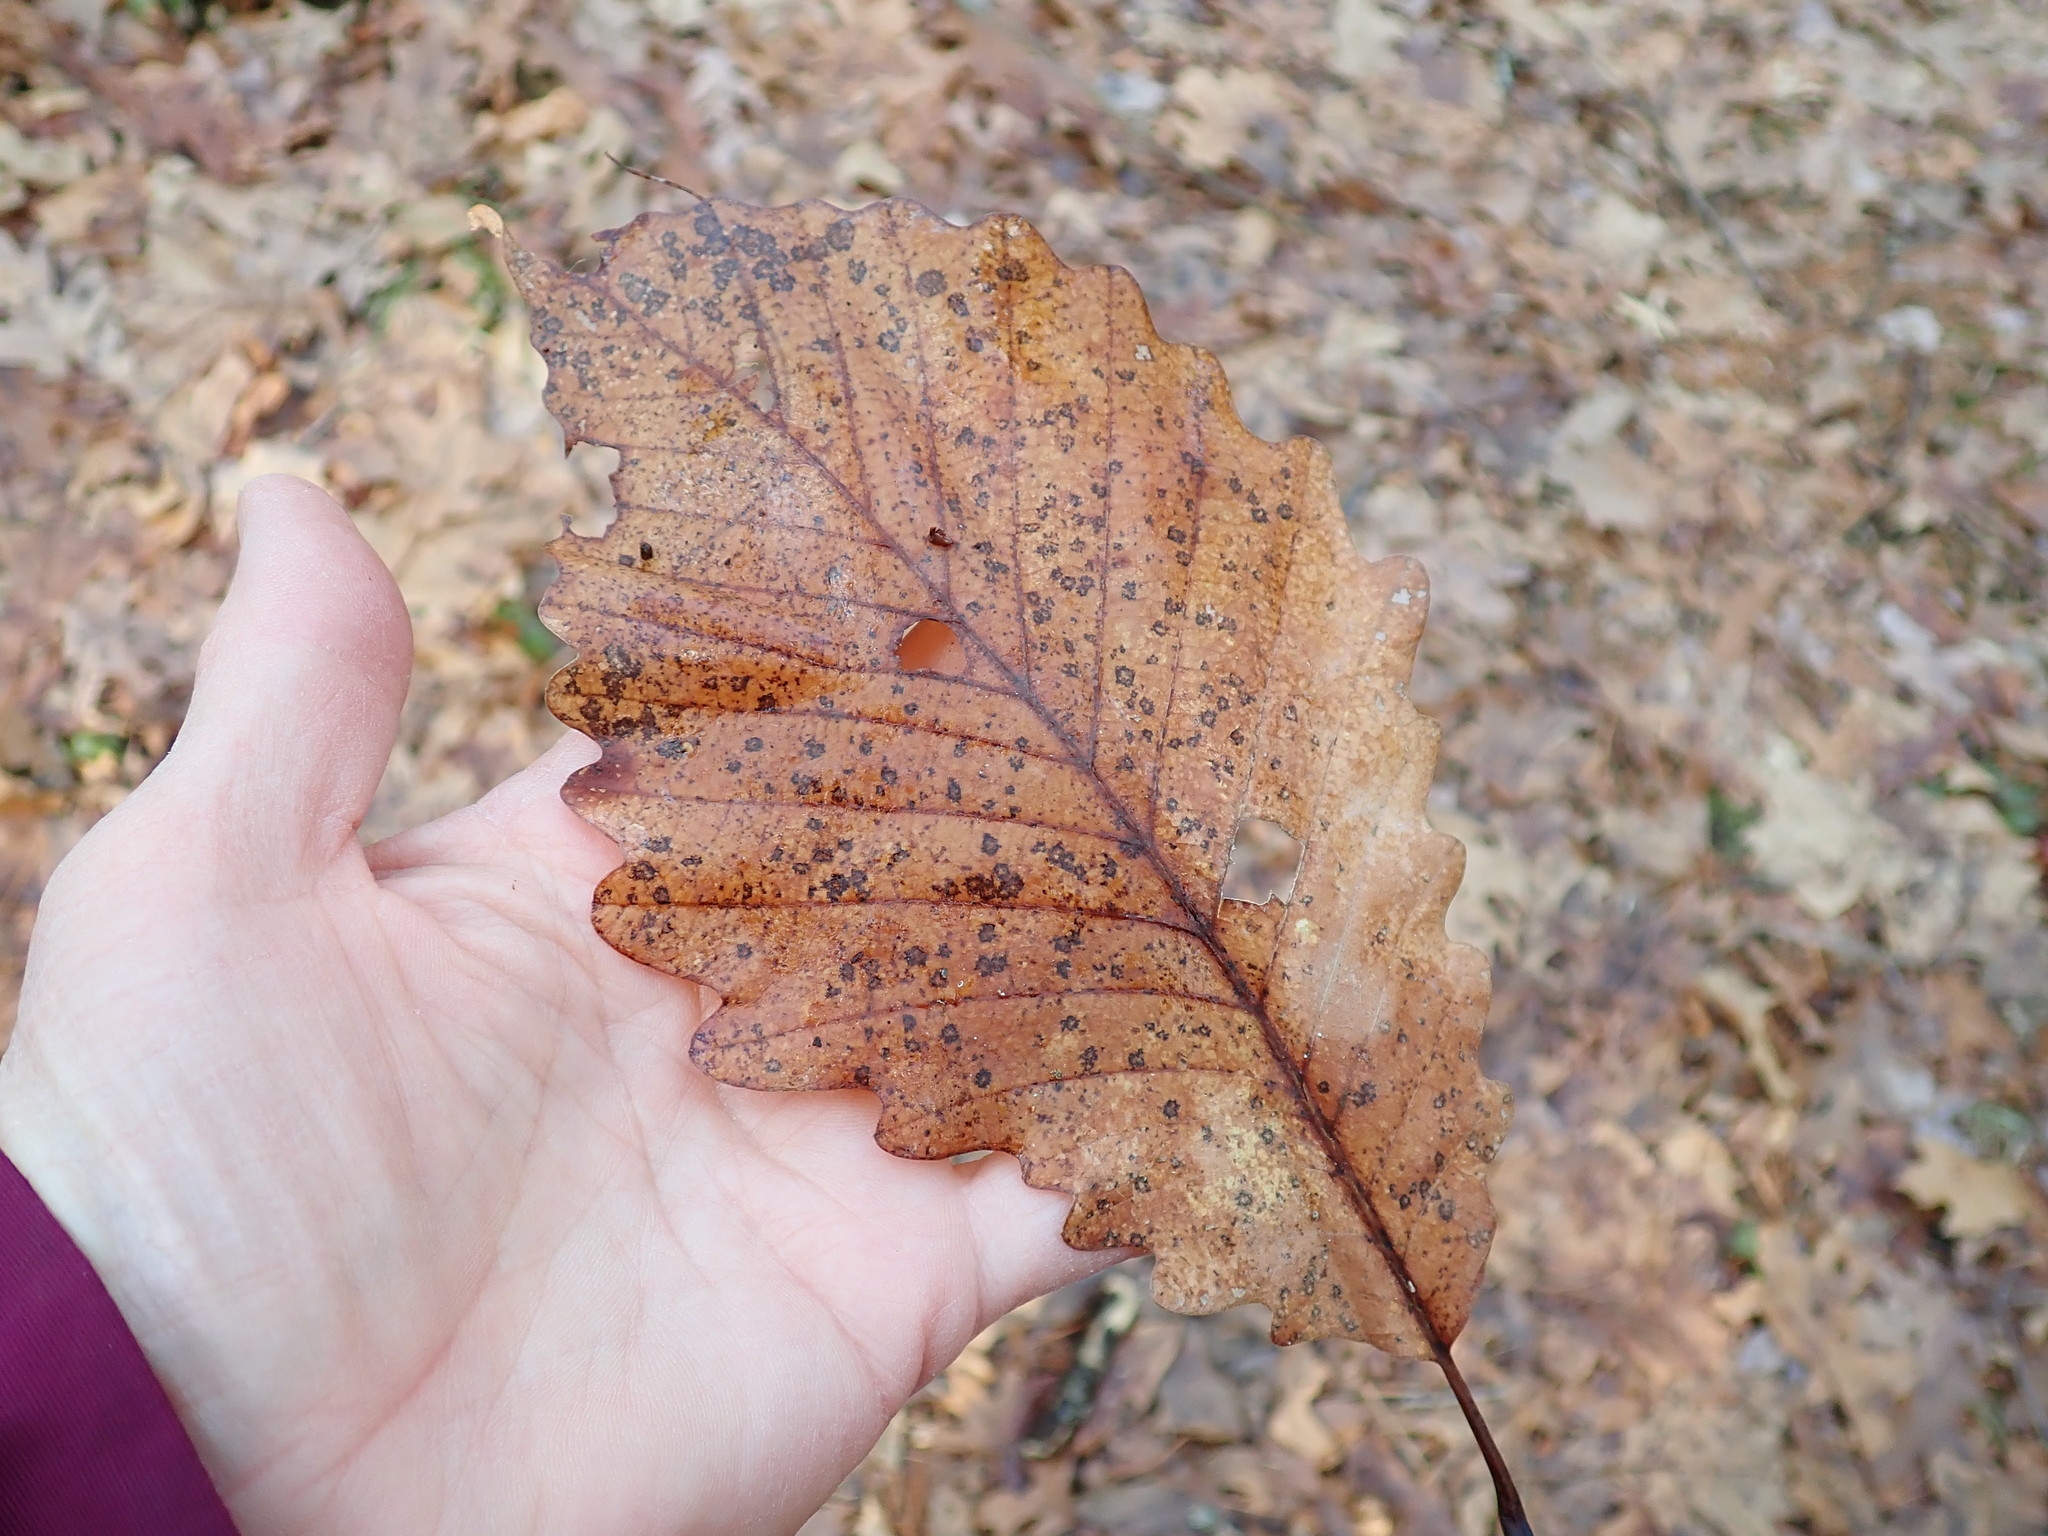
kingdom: Plantae
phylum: Tracheophyta
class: Magnoliopsida
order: Fagales
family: Fagaceae
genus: Quercus
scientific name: Quercus montana
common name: Chestnut oak
